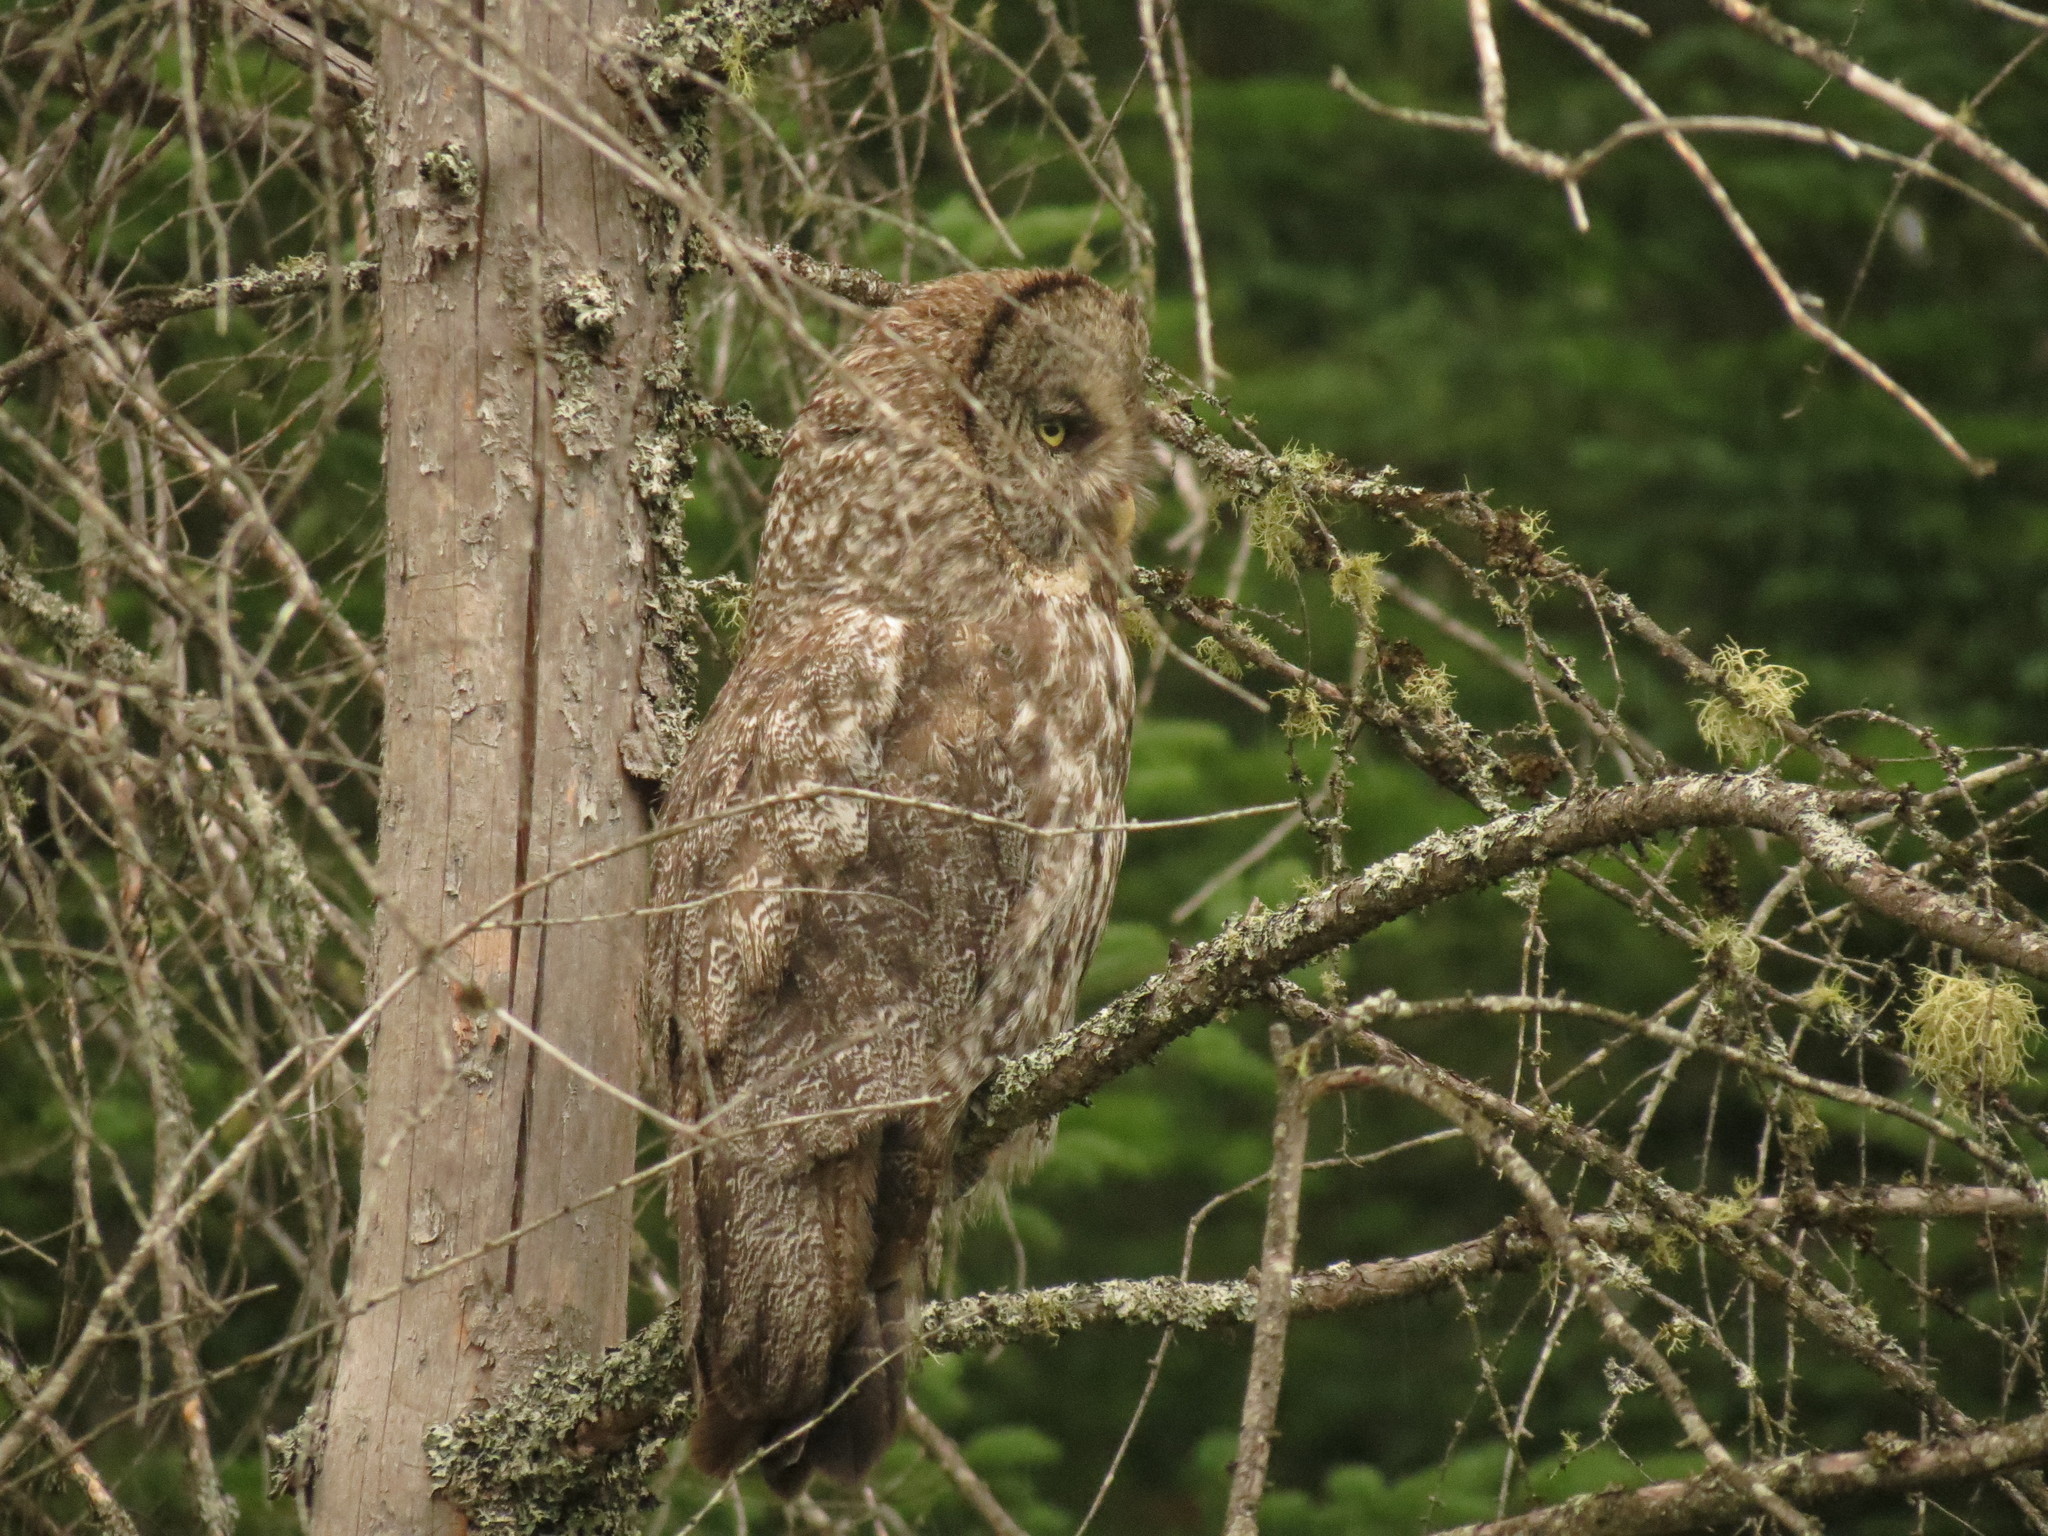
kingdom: Animalia
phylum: Chordata
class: Aves
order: Strigiformes
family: Strigidae
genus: Strix
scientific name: Strix nebulosa
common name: Great grey owl
